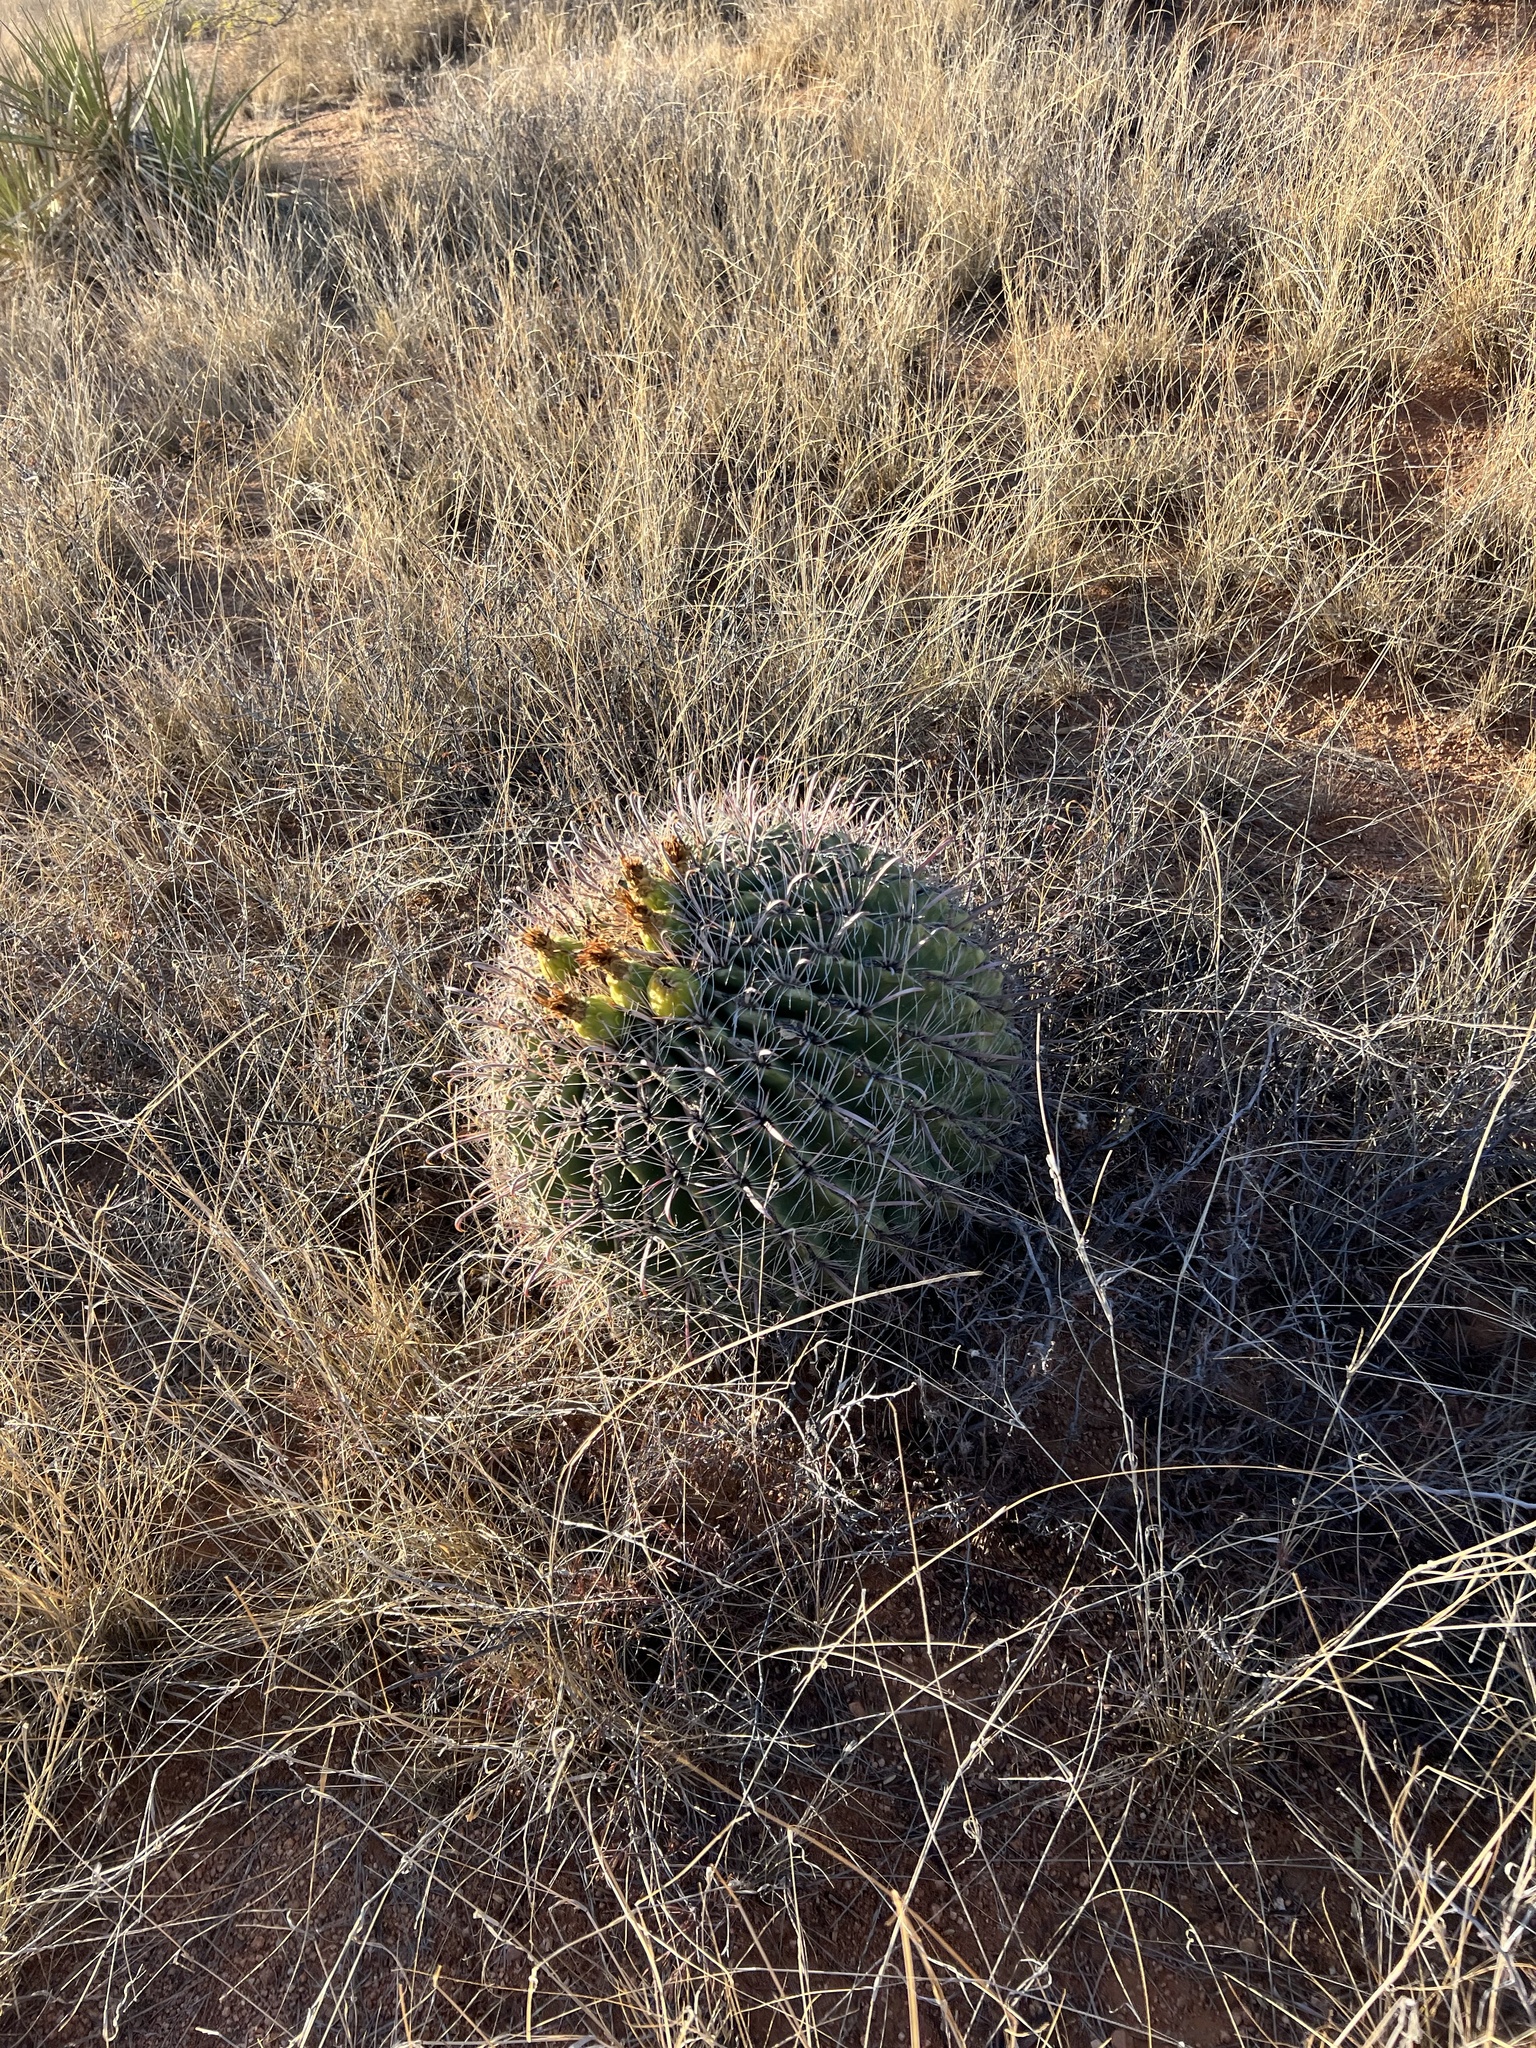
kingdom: Plantae
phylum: Tracheophyta
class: Magnoliopsida
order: Caryophyllales
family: Cactaceae
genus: Ferocactus
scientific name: Ferocactus wislizeni
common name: Candy barrel cactus
